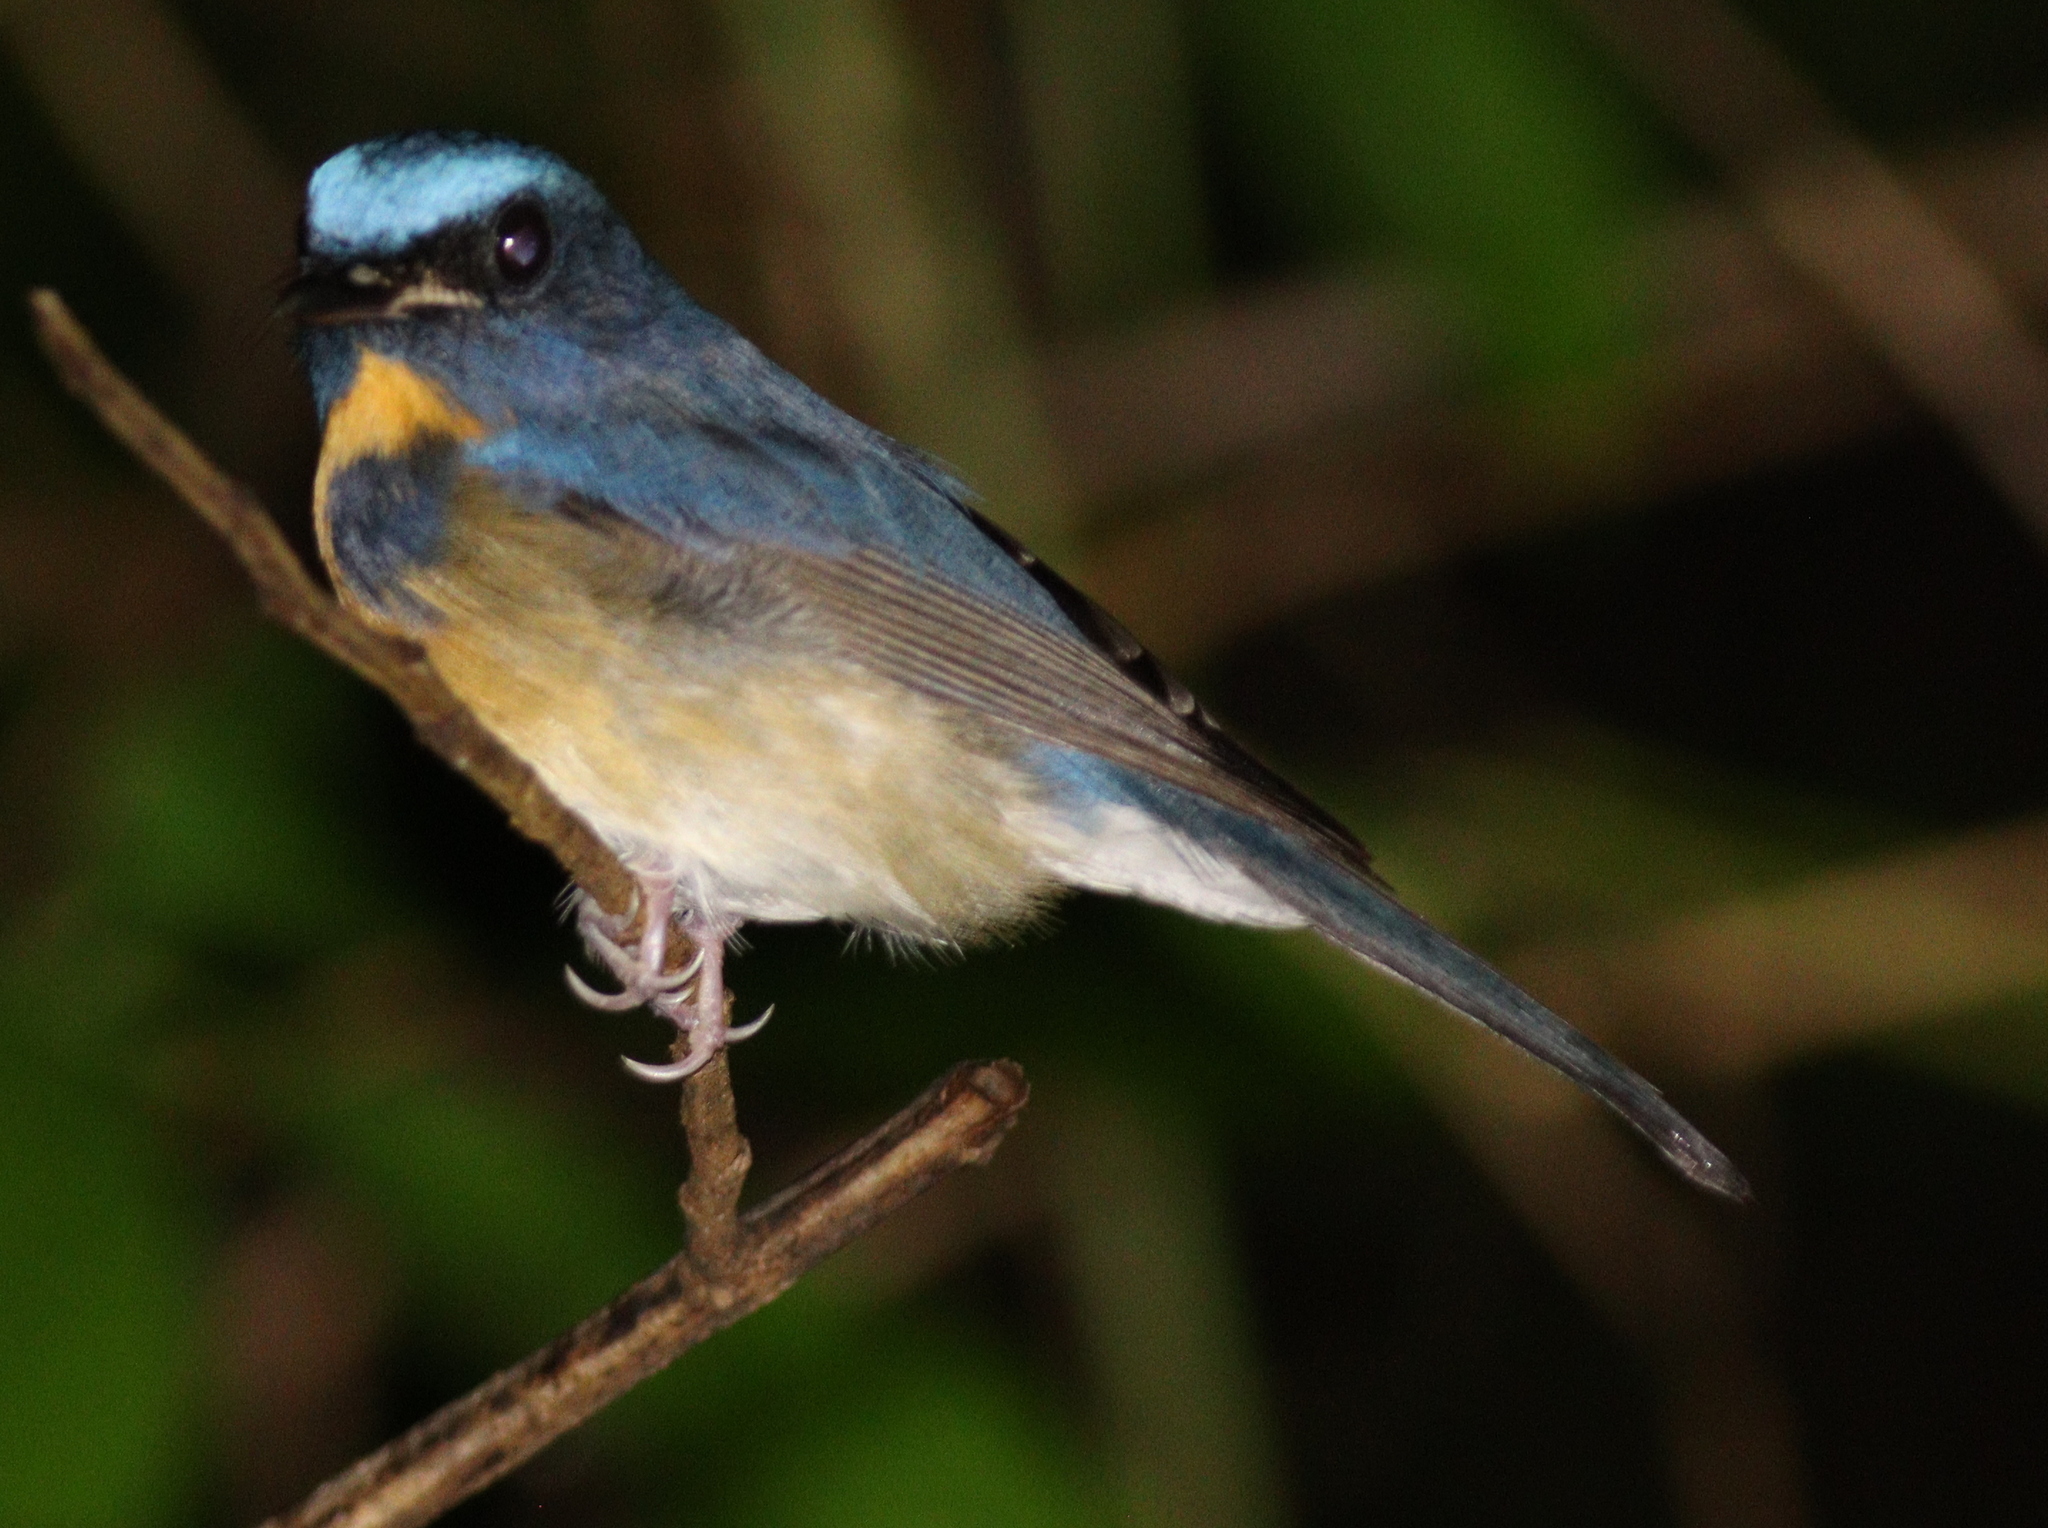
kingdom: Animalia
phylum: Chordata
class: Aves
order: Passeriformes
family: Muscicapidae
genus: Cyornis
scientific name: Cyornis glaucicomans
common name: Chinese blue flycatcher
